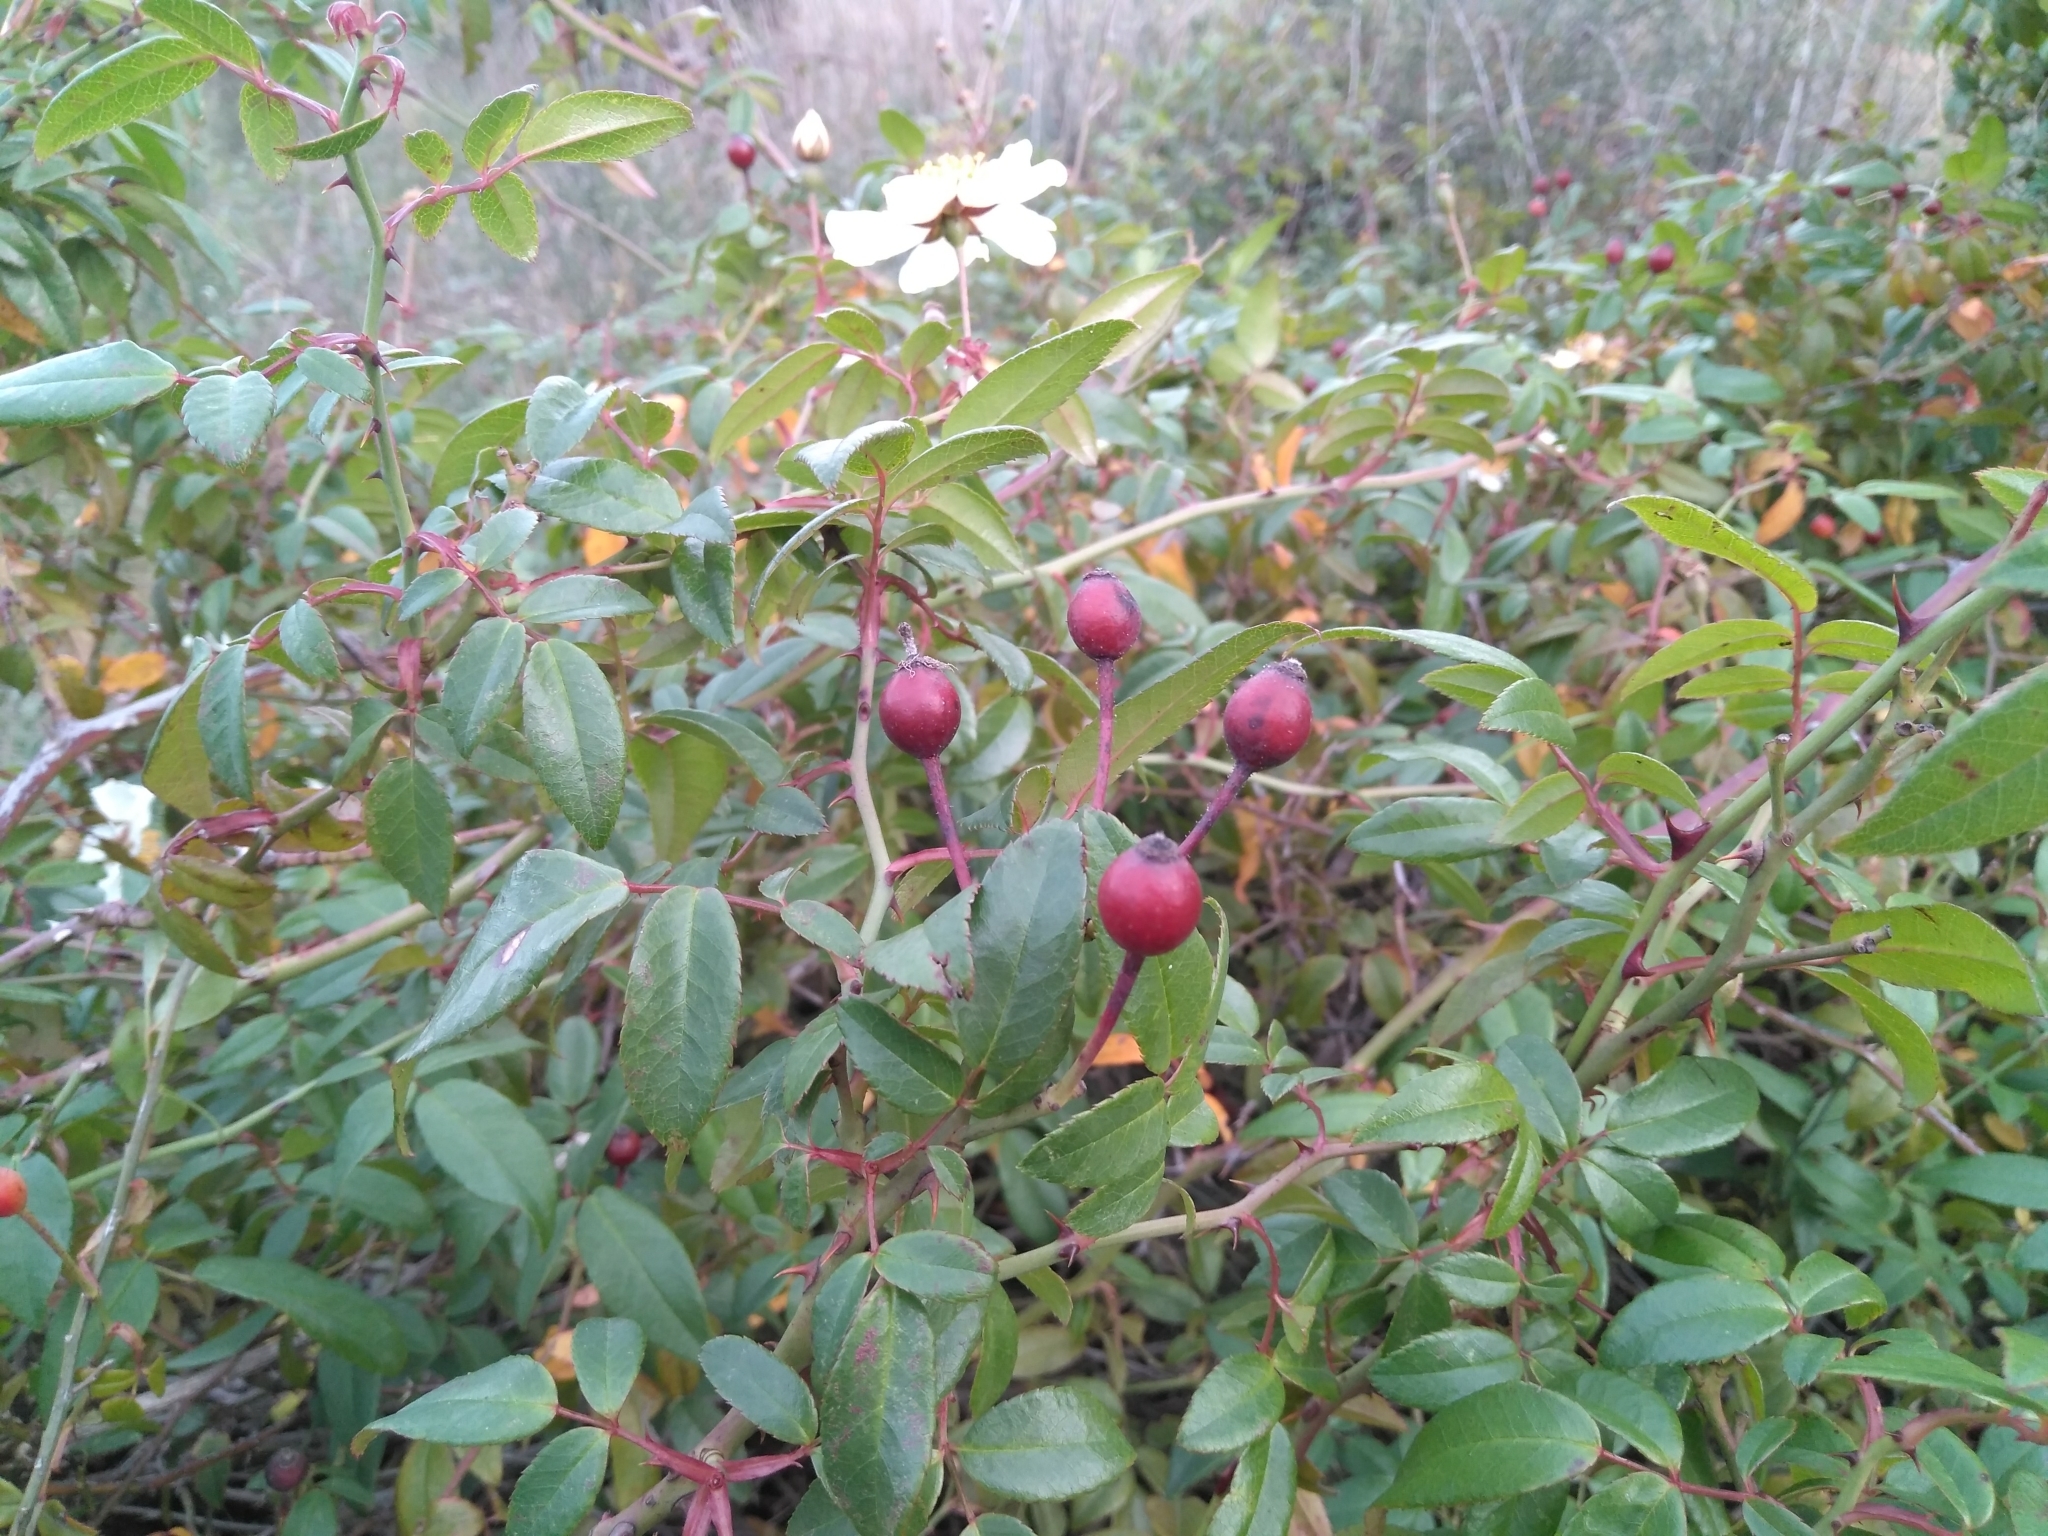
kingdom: Plantae
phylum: Tracheophyta
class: Magnoliopsida
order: Rosales
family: Rosaceae
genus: Rosa
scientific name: Rosa sempervirens
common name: Evergreen rose
